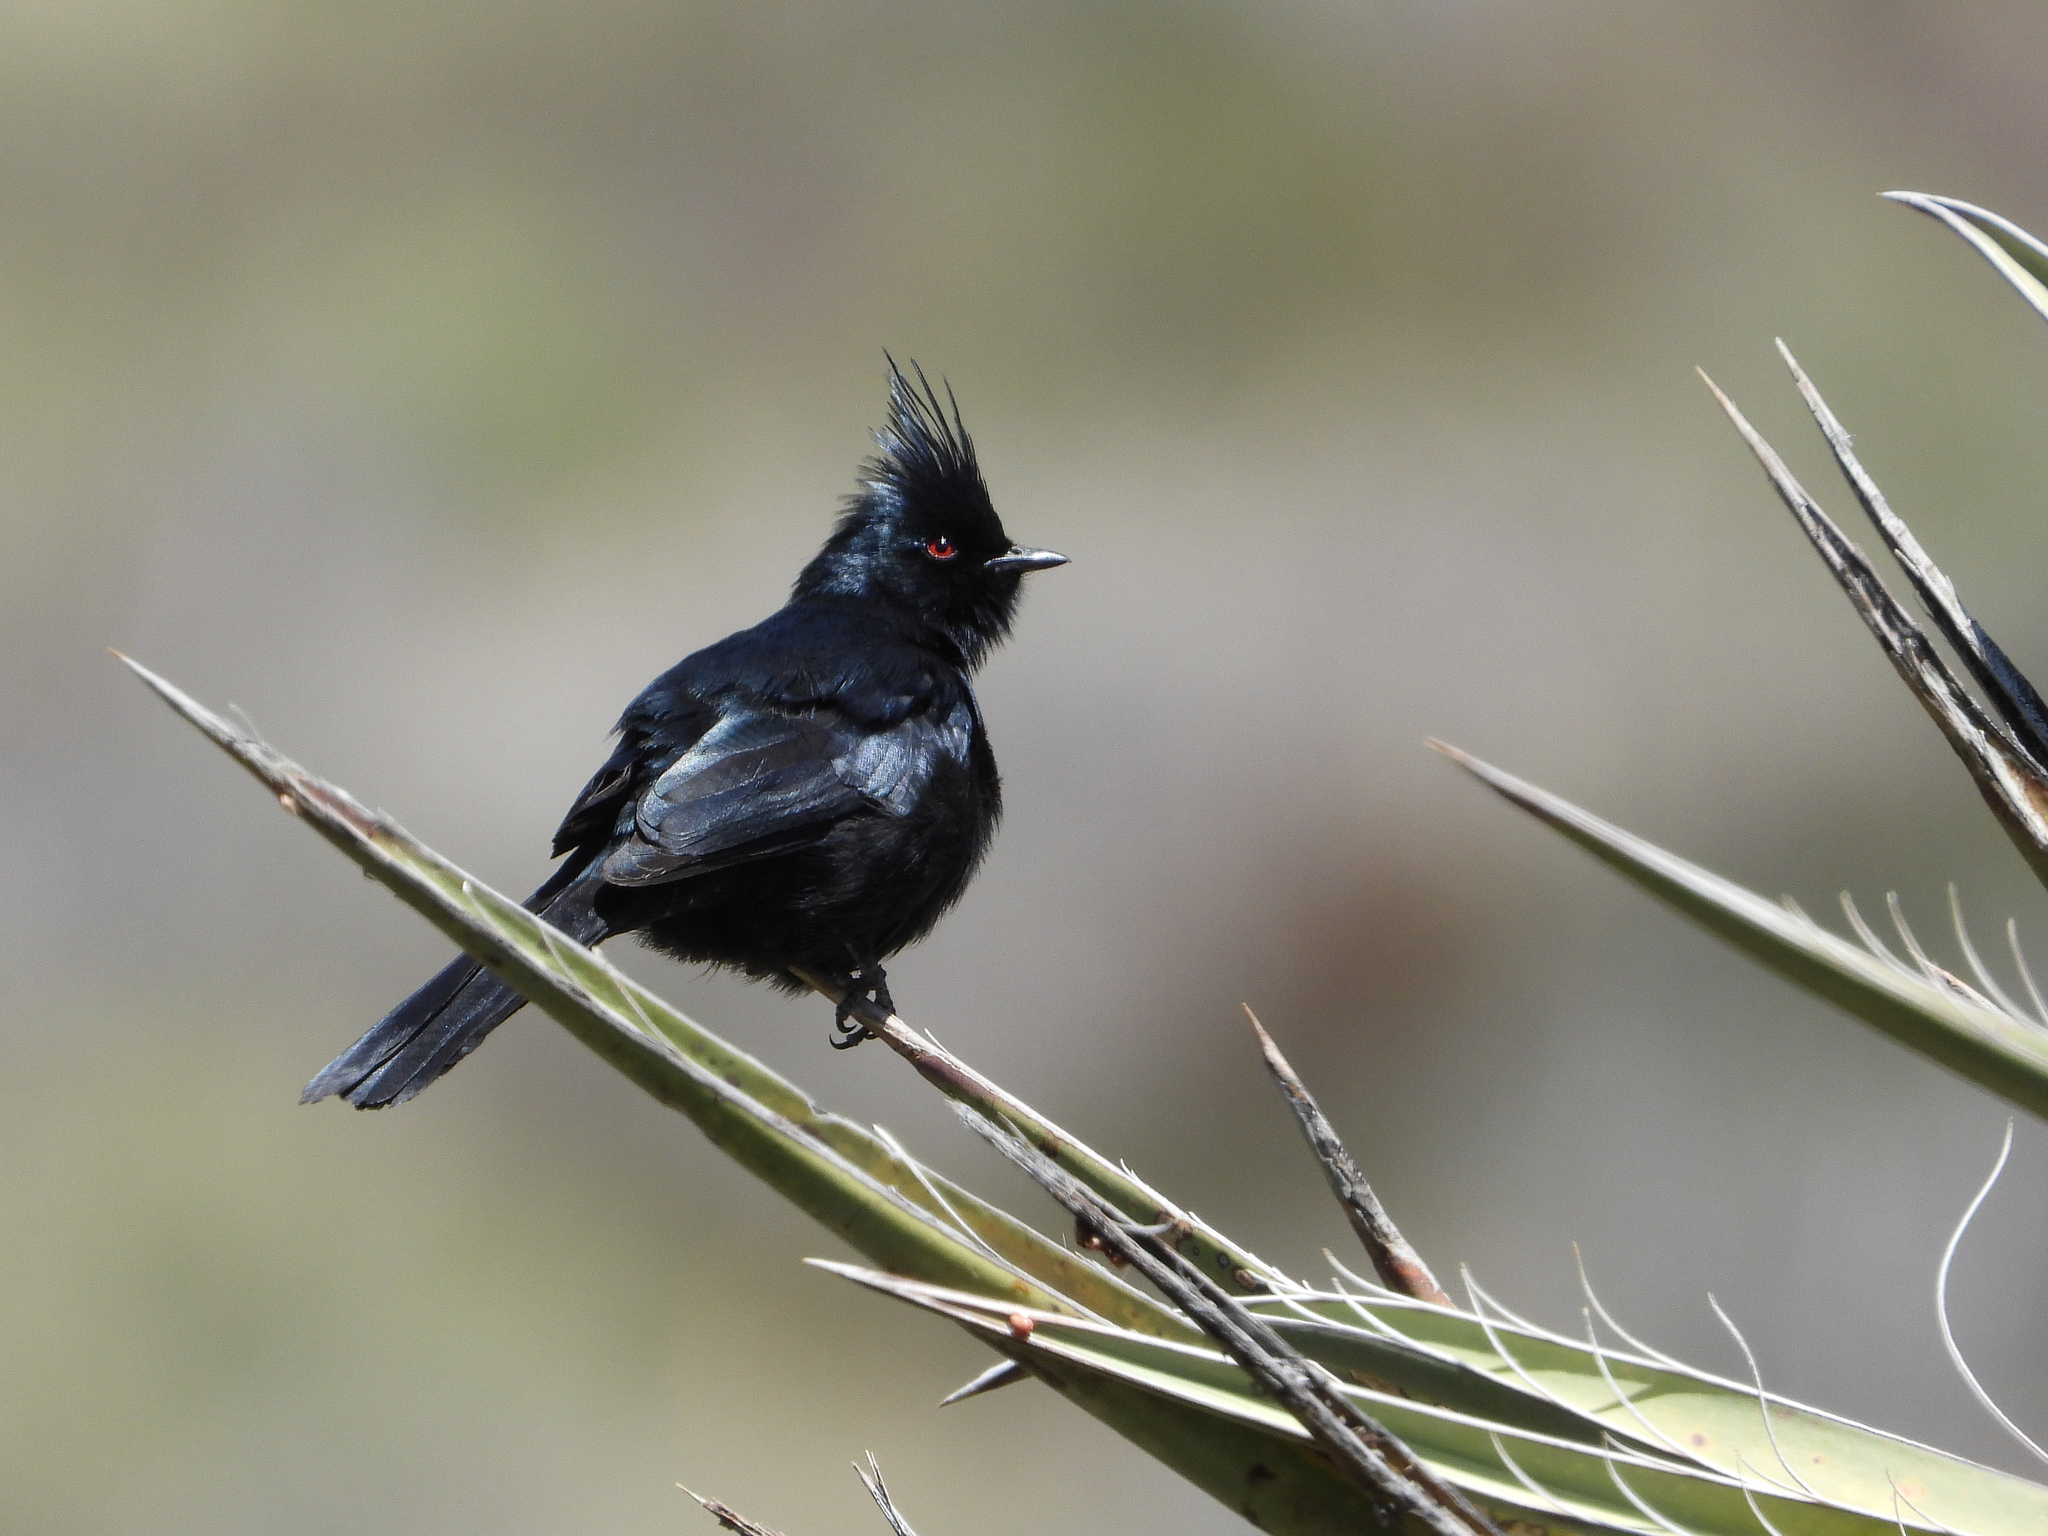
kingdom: Animalia
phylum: Chordata
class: Aves
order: Passeriformes
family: Ptilogonatidae
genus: Phainopepla
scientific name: Phainopepla nitens
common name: Phainopepla
